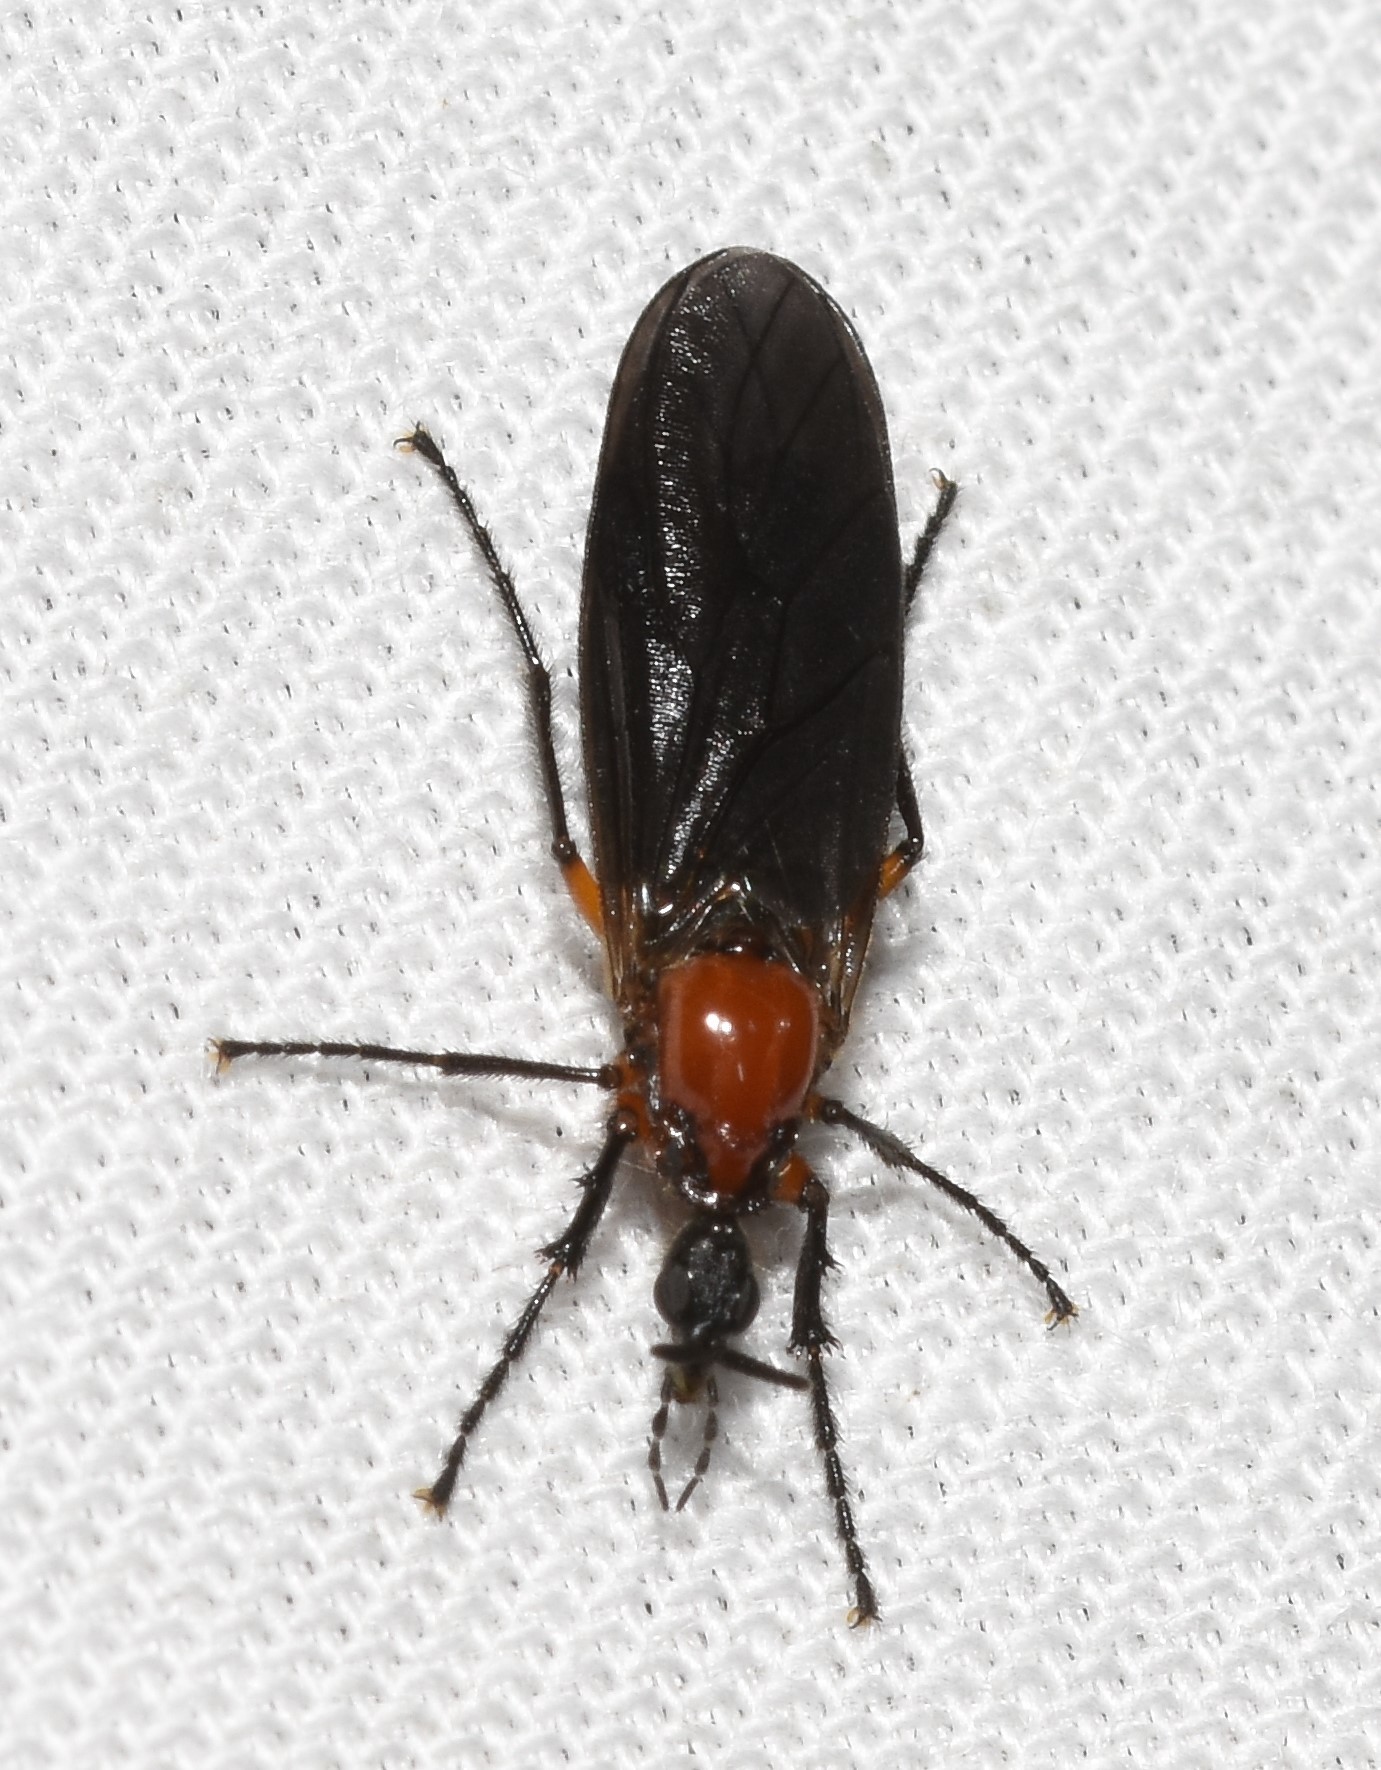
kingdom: Animalia
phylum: Arthropoda
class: Insecta
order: Diptera
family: Bibionidae
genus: Dilophus
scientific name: Dilophus serotinus
